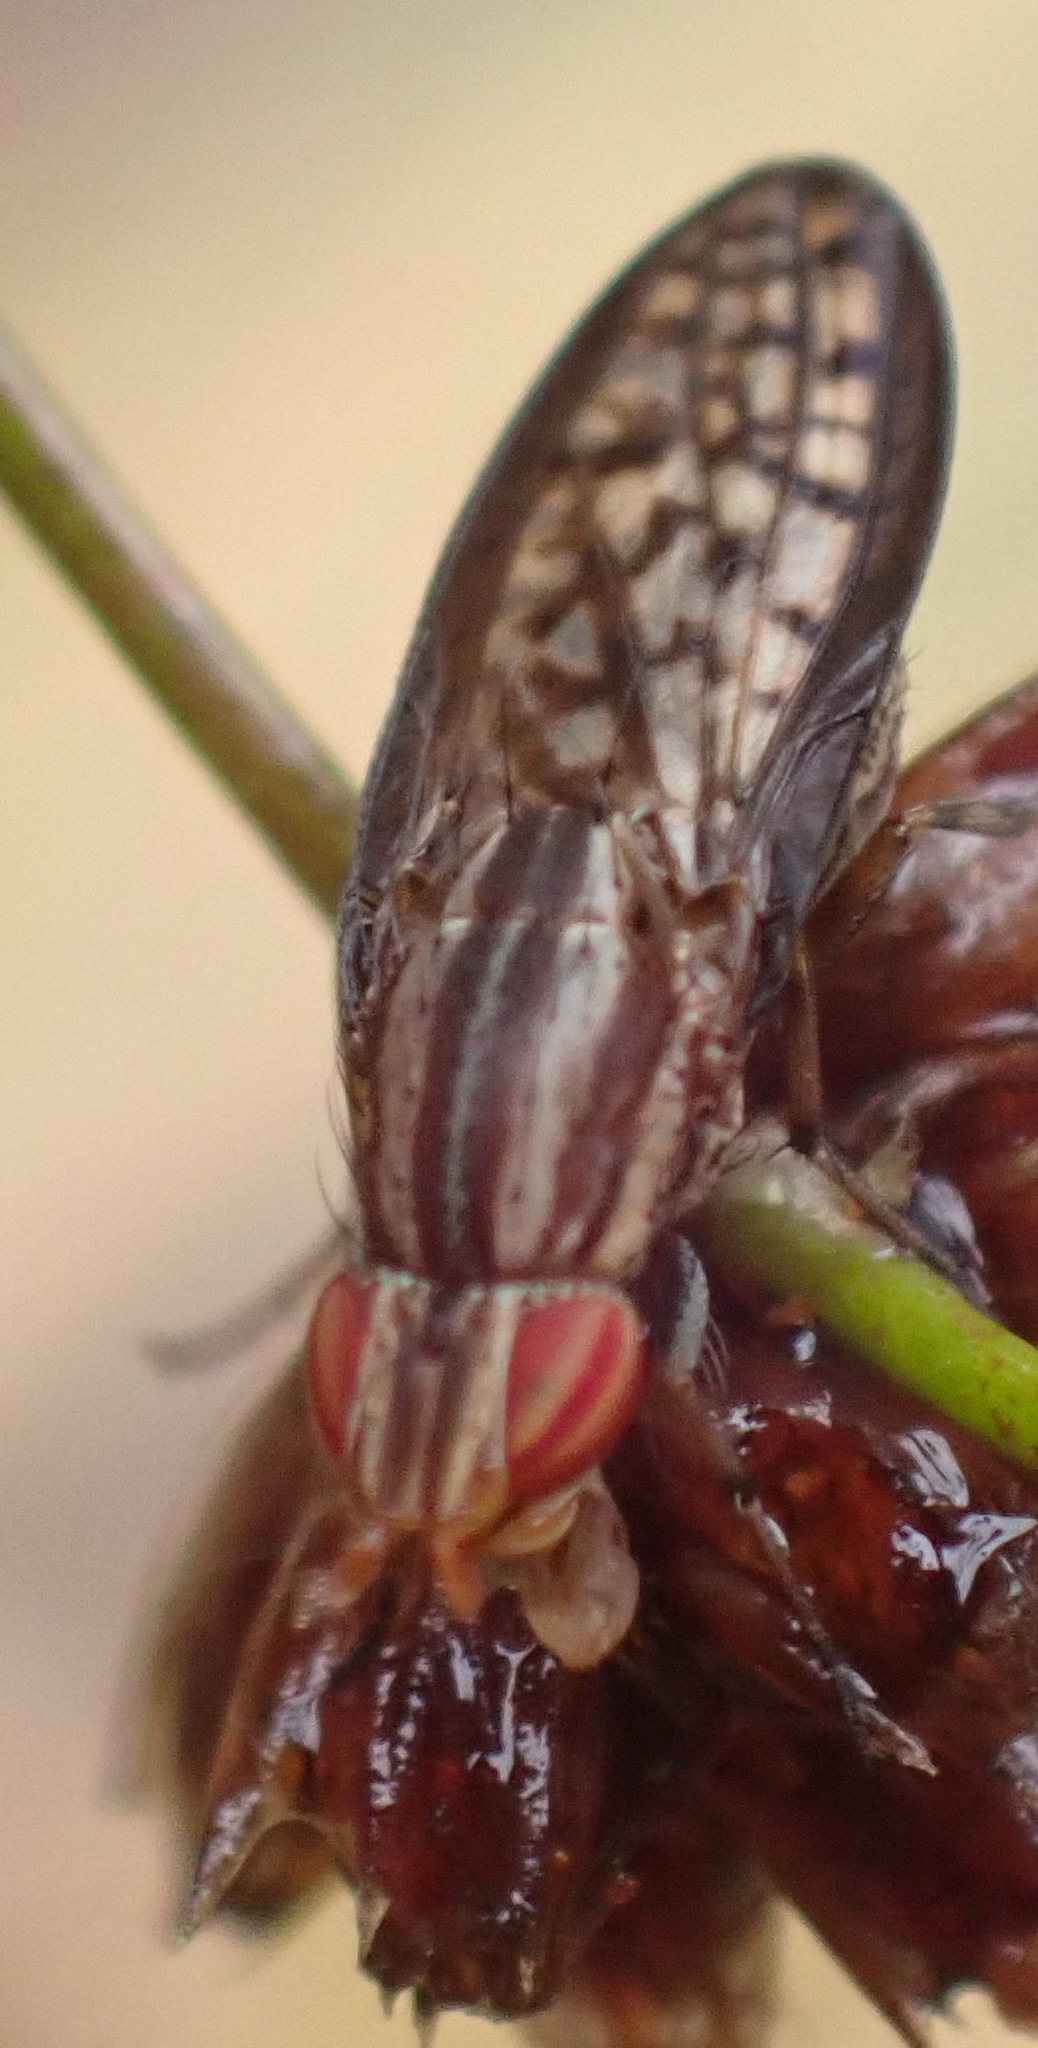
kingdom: Animalia
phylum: Arthropoda
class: Insecta
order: Diptera
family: Lauxaniidae
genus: Sapromyza
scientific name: Sapromyza guttulata
